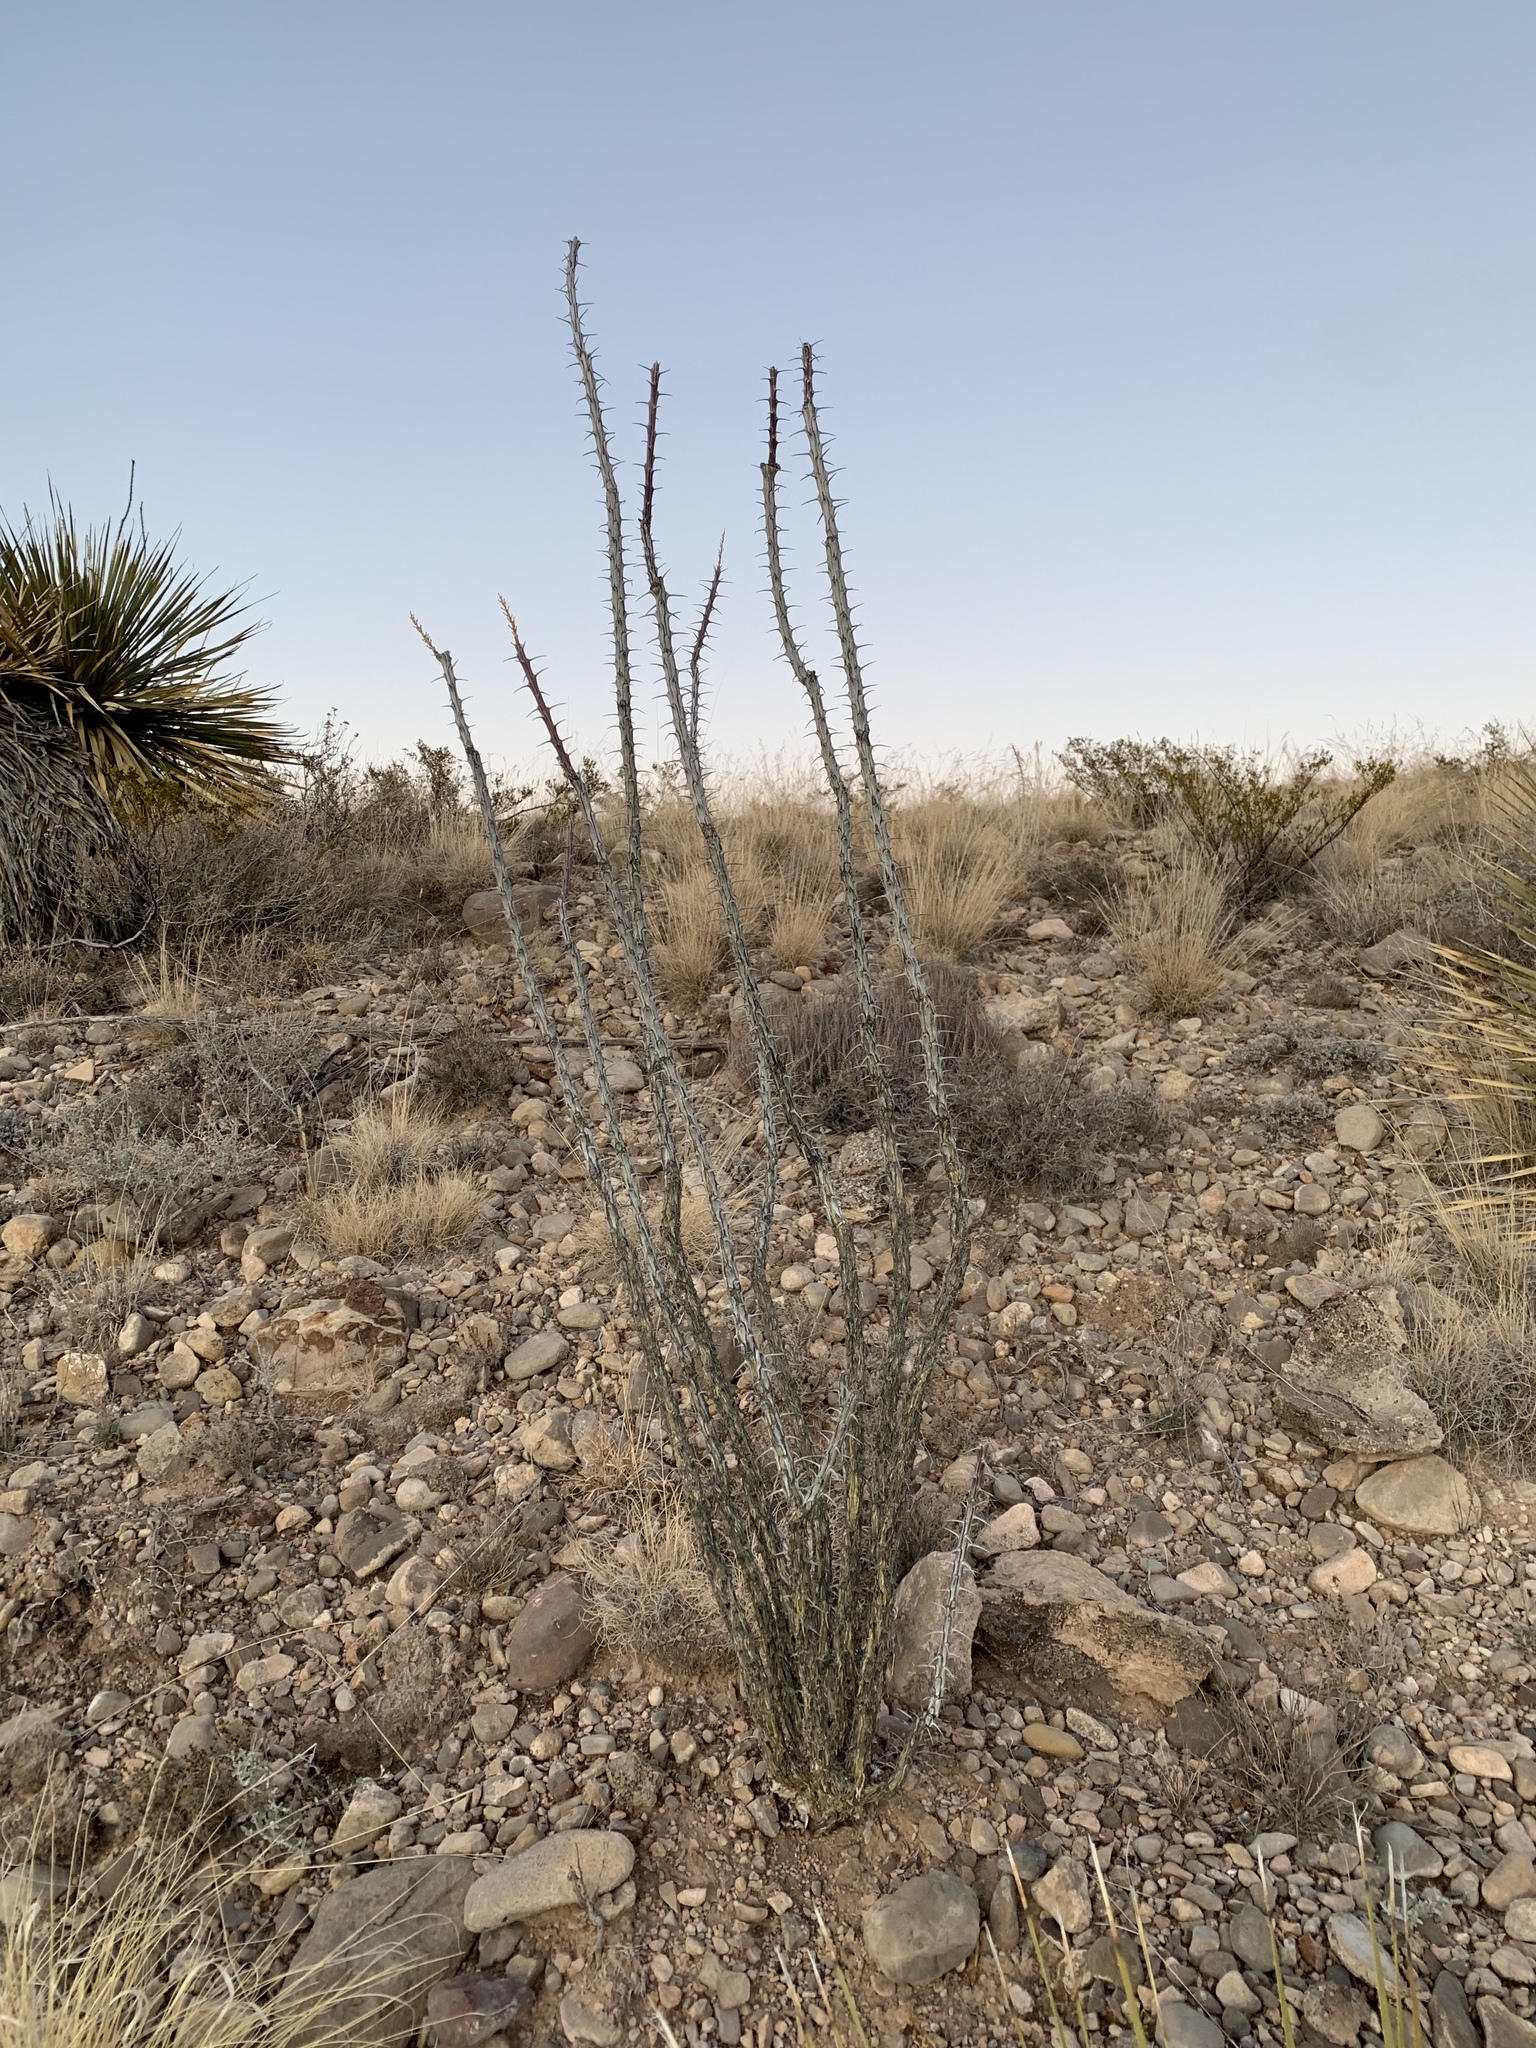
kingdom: Plantae
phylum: Tracheophyta
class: Magnoliopsida
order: Ericales
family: Fouquieriaceae
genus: Fouquieria
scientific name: Fouquieria splendens
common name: Vine-cactus
